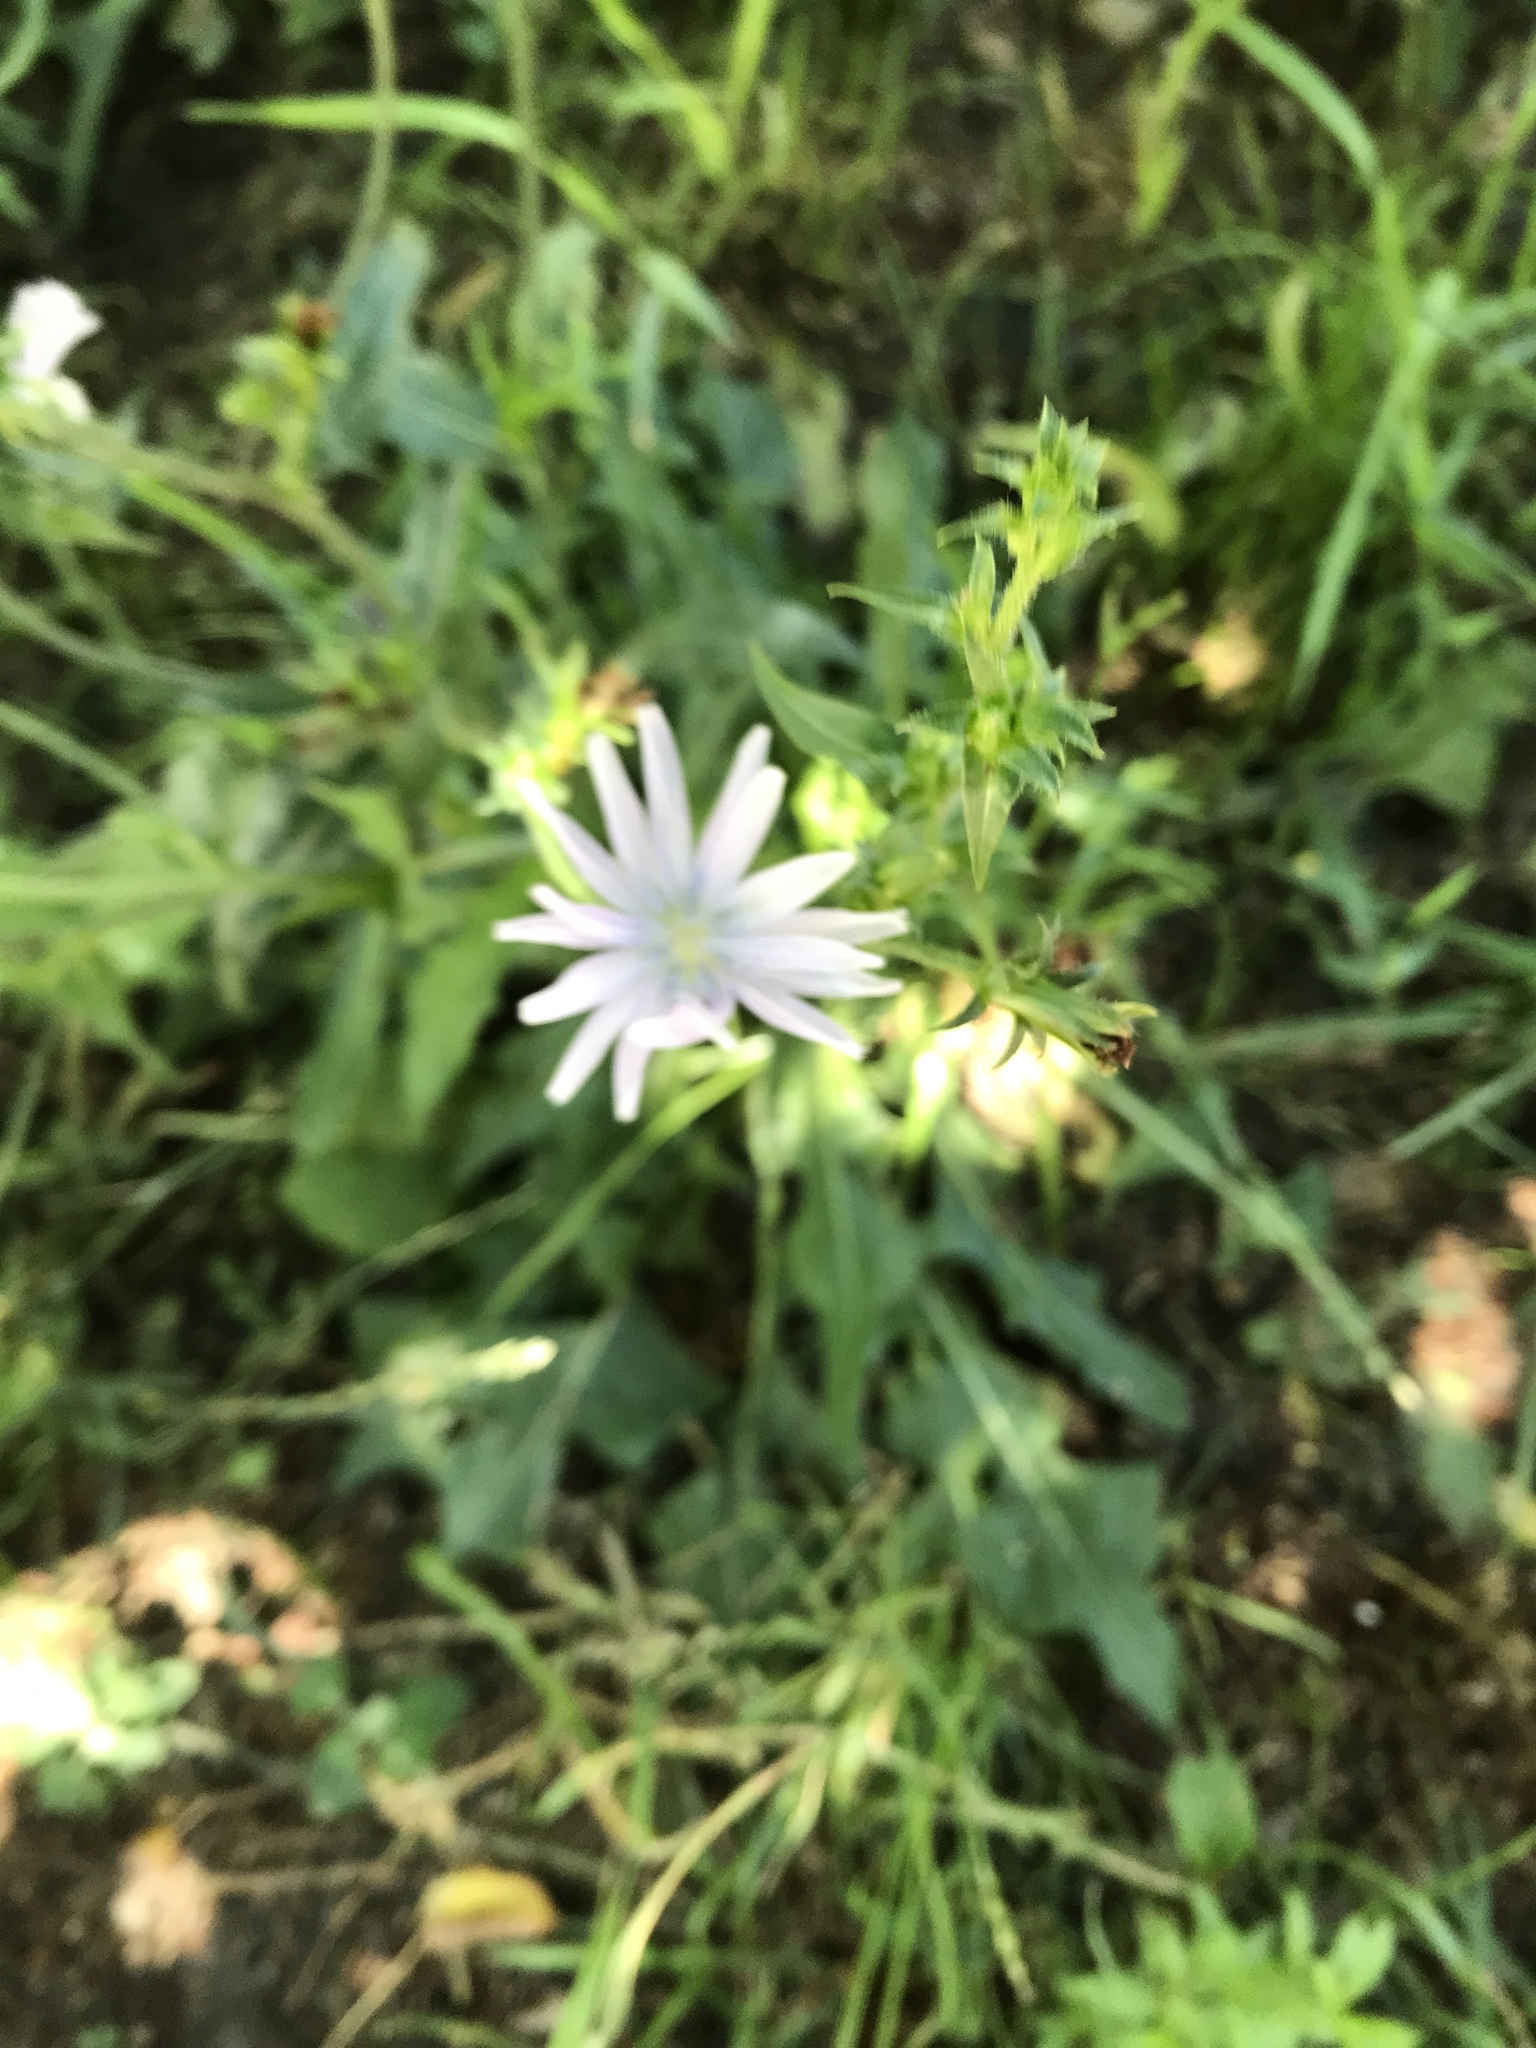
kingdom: Plantae
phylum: Tracheophyta
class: Magnoliopsida
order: Asterales
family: Asteraceae
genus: Cichorium
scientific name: Cichorium intybus
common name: Chicory
